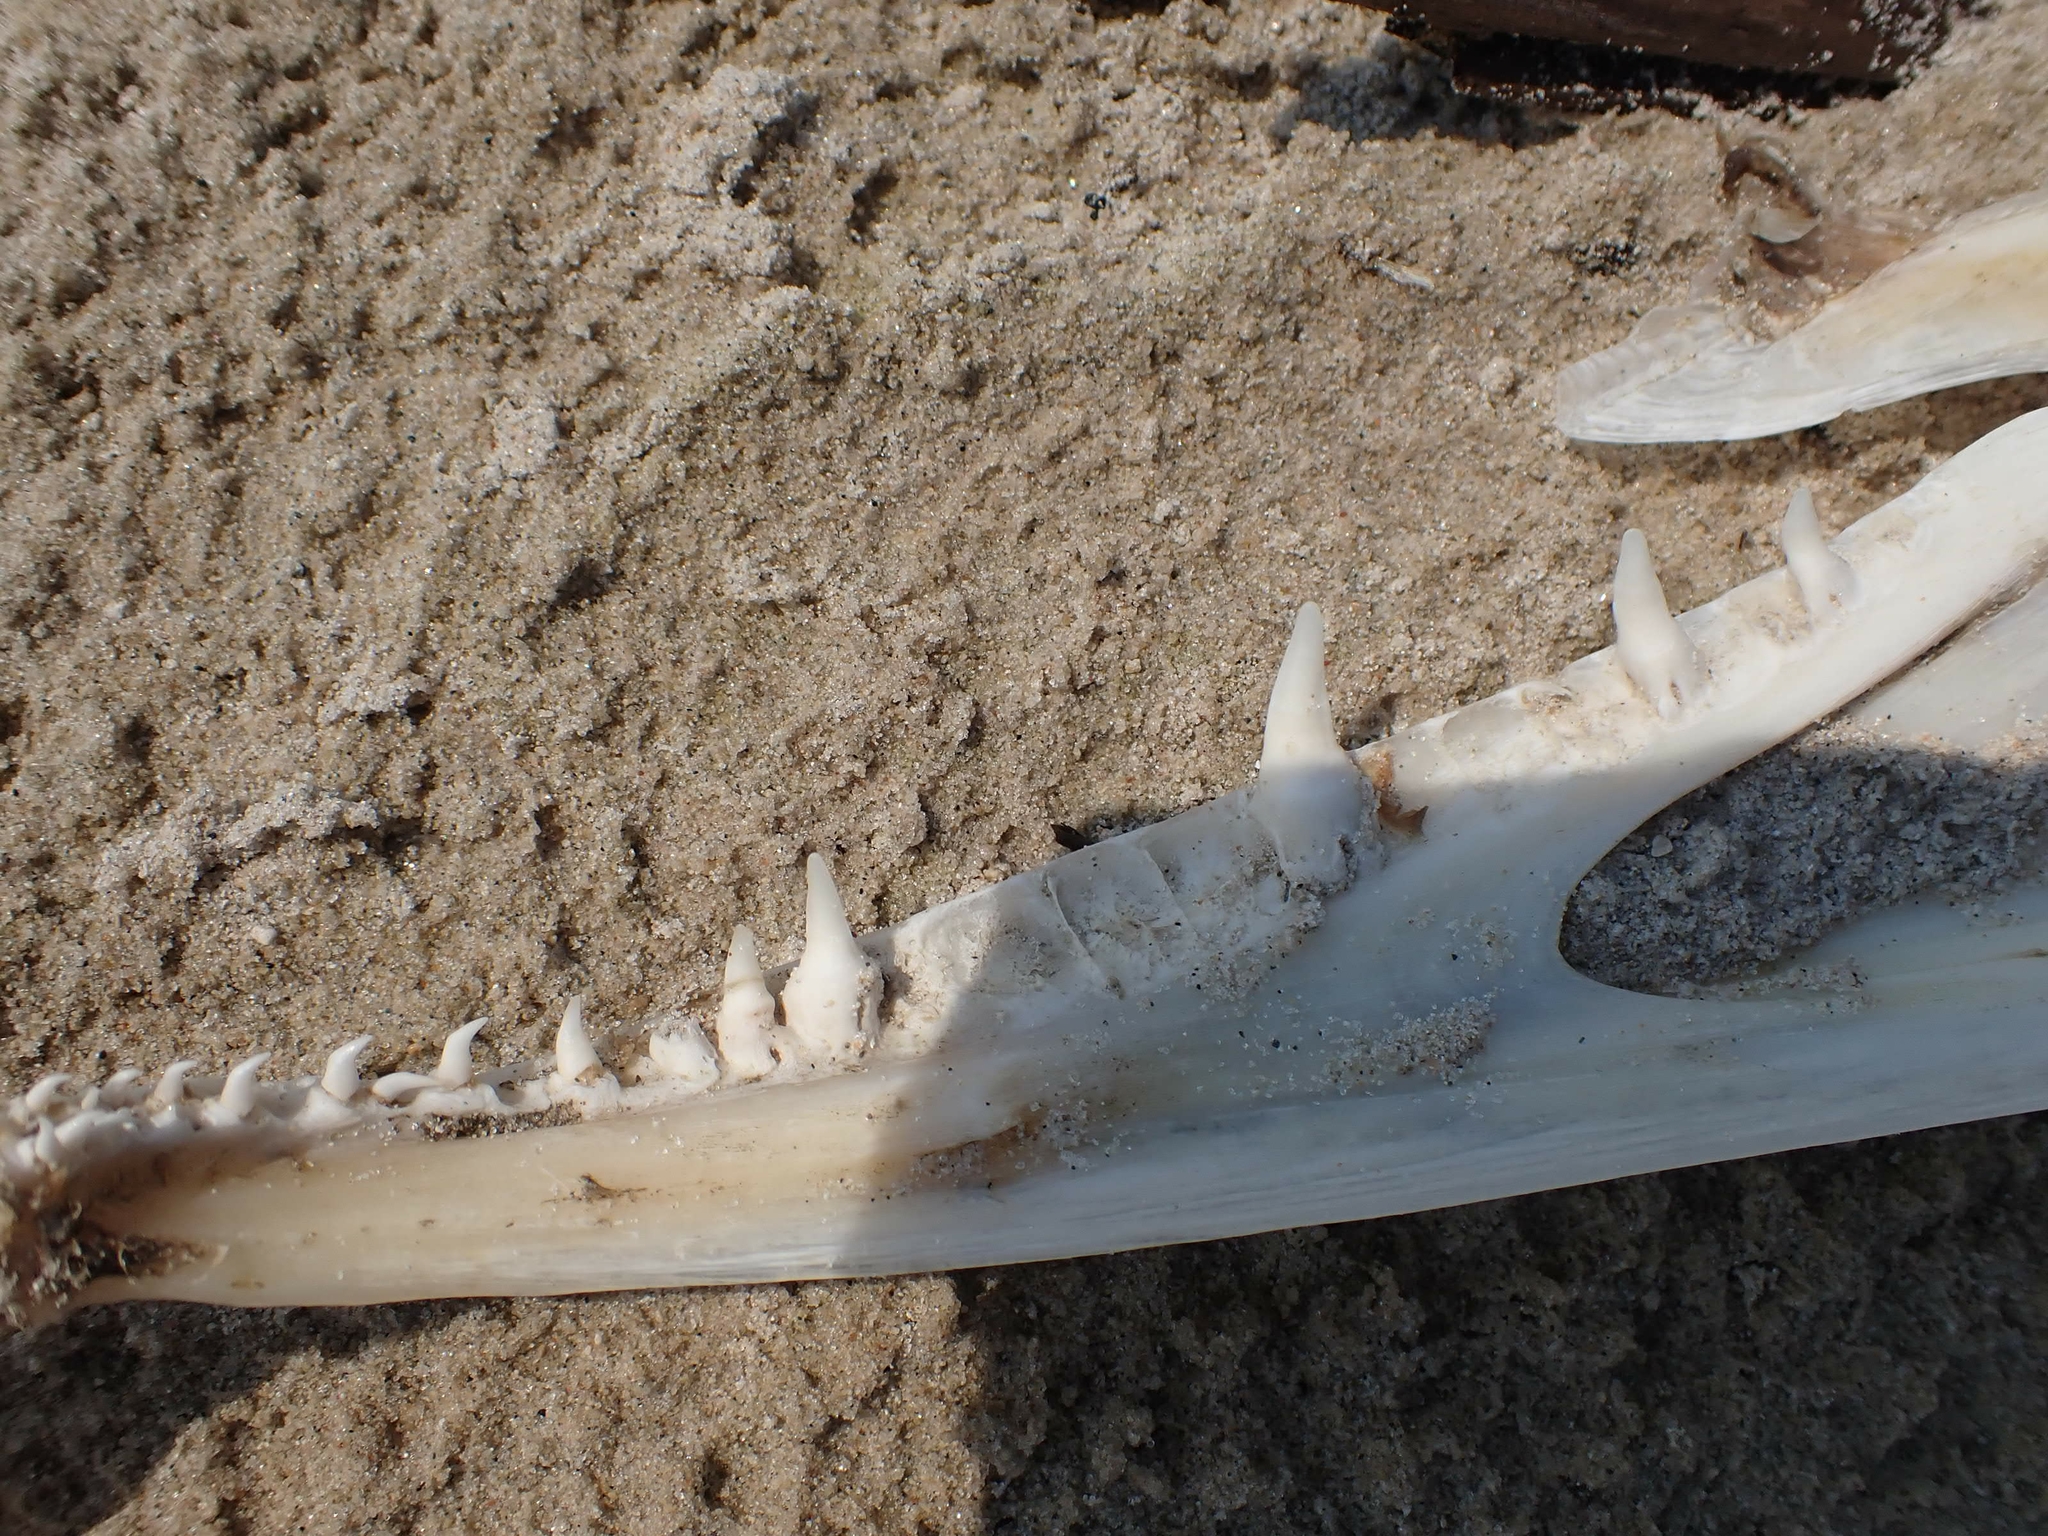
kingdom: Animalia
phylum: Chordata
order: Esociformes
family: Esocidae
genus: Esox
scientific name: Esox lucius
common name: Northern pike
